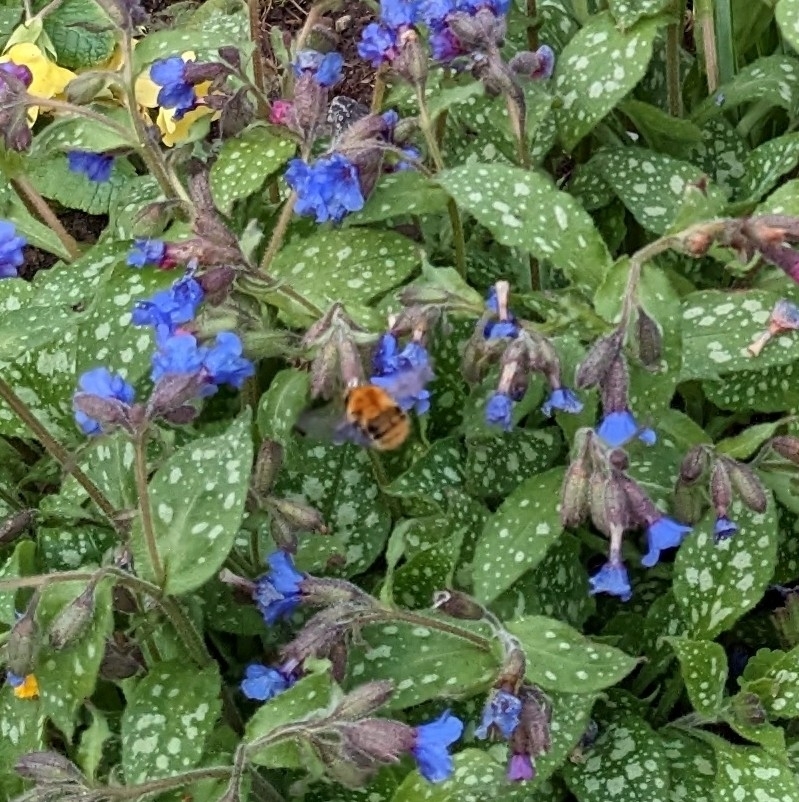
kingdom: Animalia
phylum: Arthropoda
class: Insecta
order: Hymenoptera
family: Apidae
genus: Bombus
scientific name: Bombus pascuorum
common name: Common carder bee
